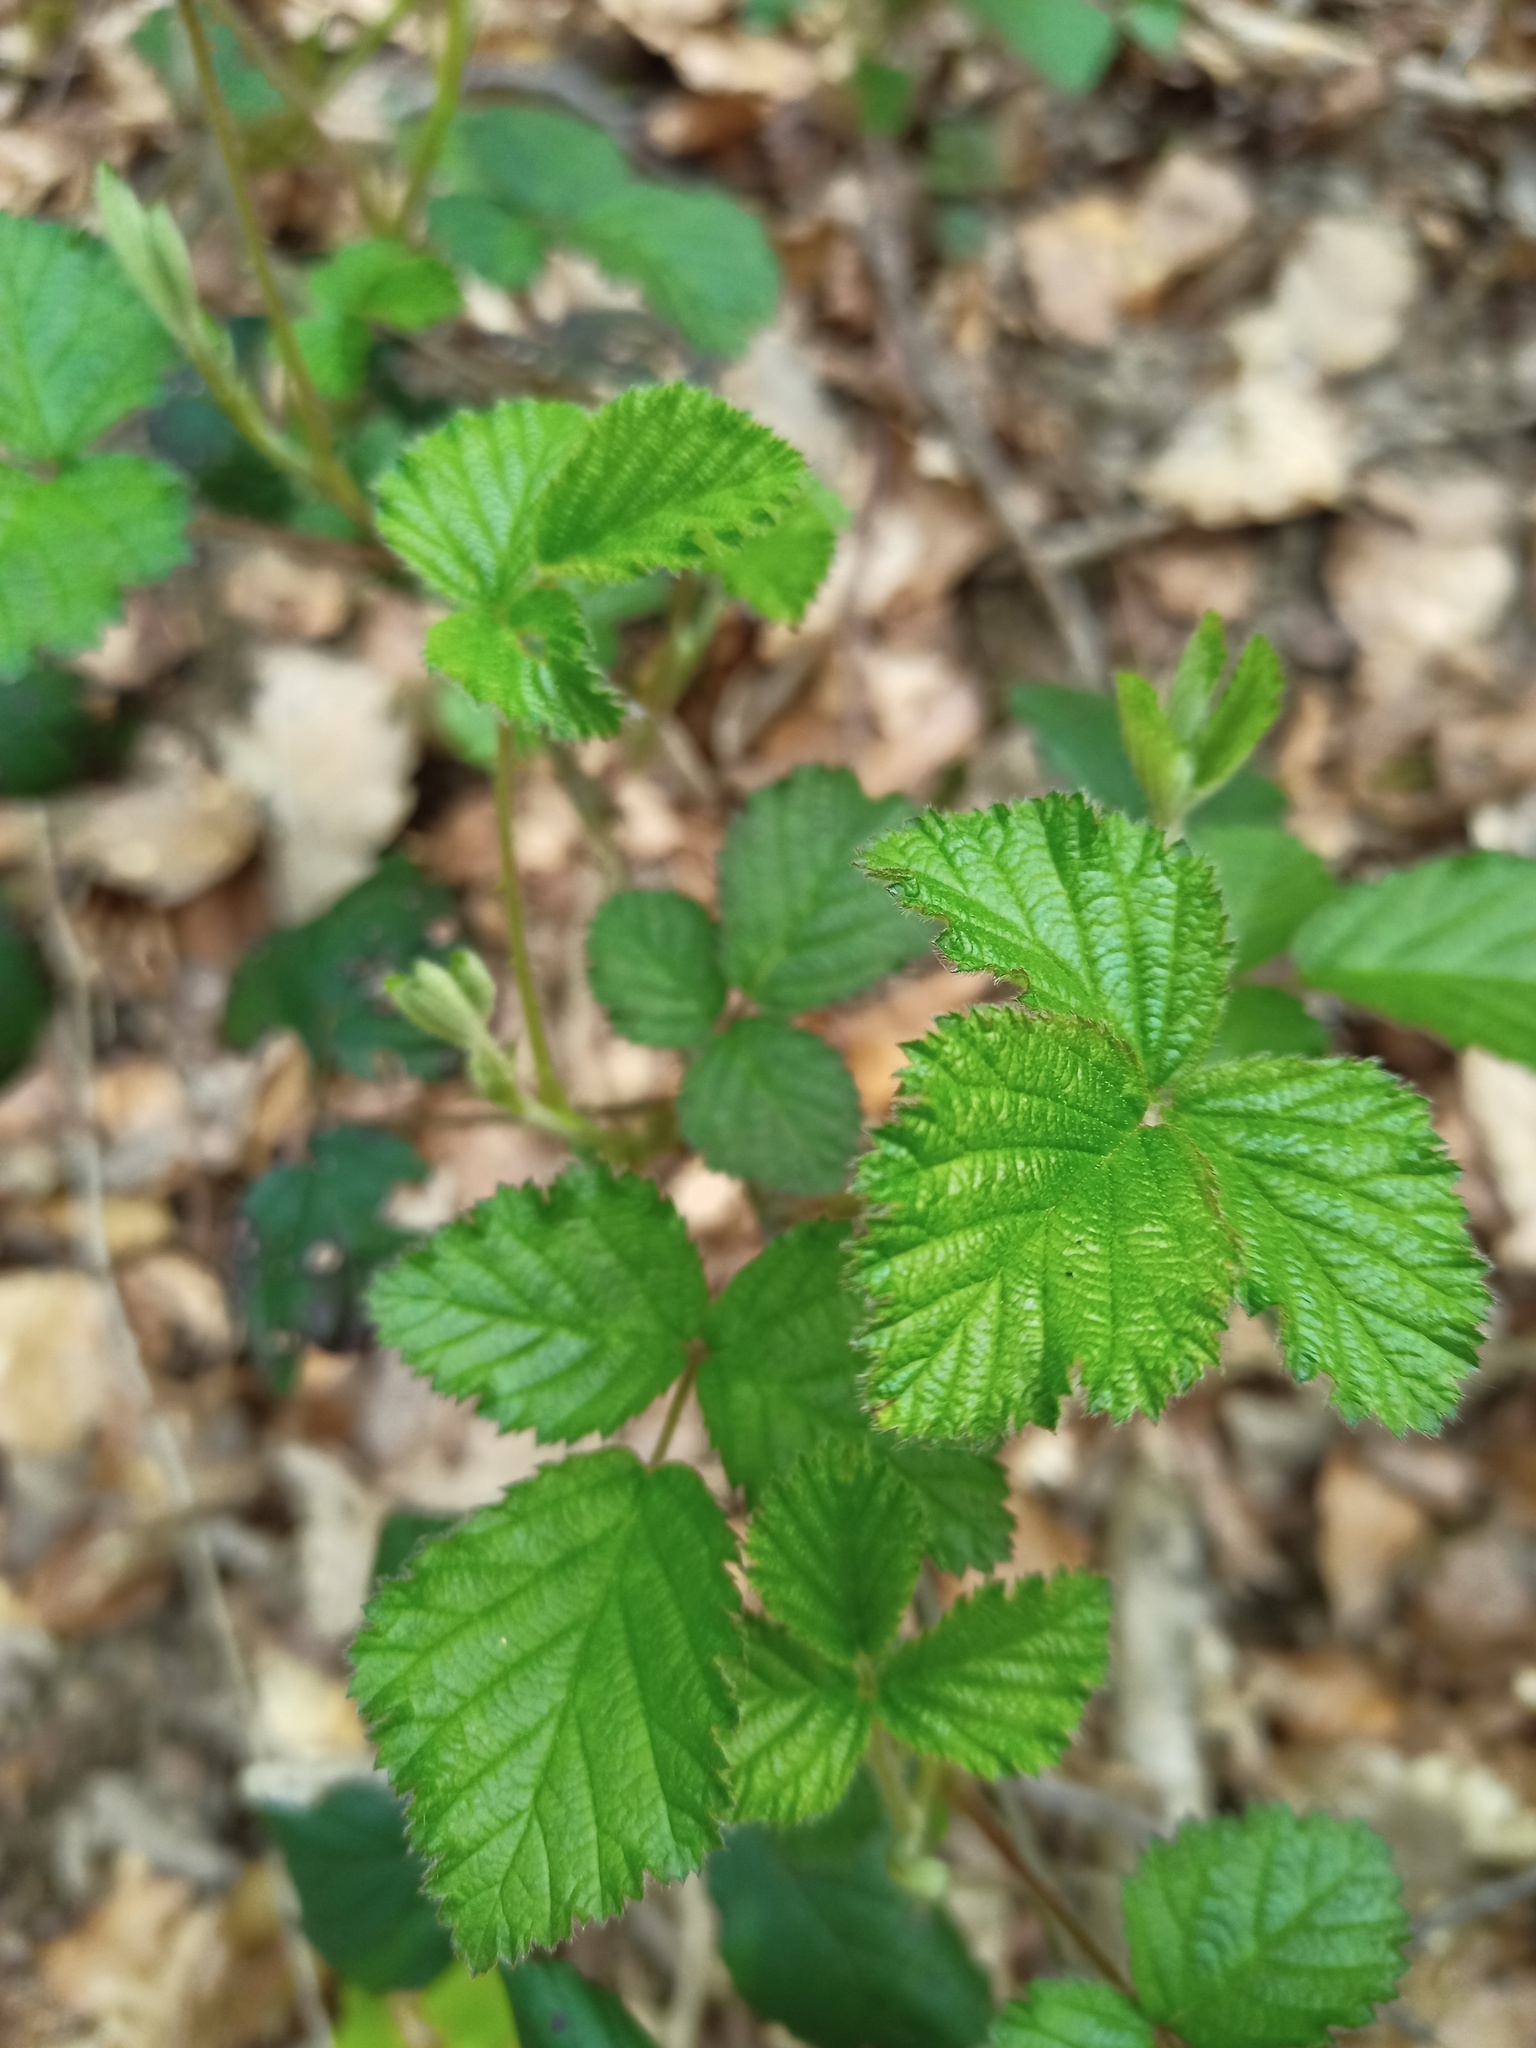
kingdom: Plantae
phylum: Tracheophyta
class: Magnoliopsida
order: Rosales
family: Rosaceae
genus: Rubus
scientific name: Rubus caesius
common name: Dewberry
